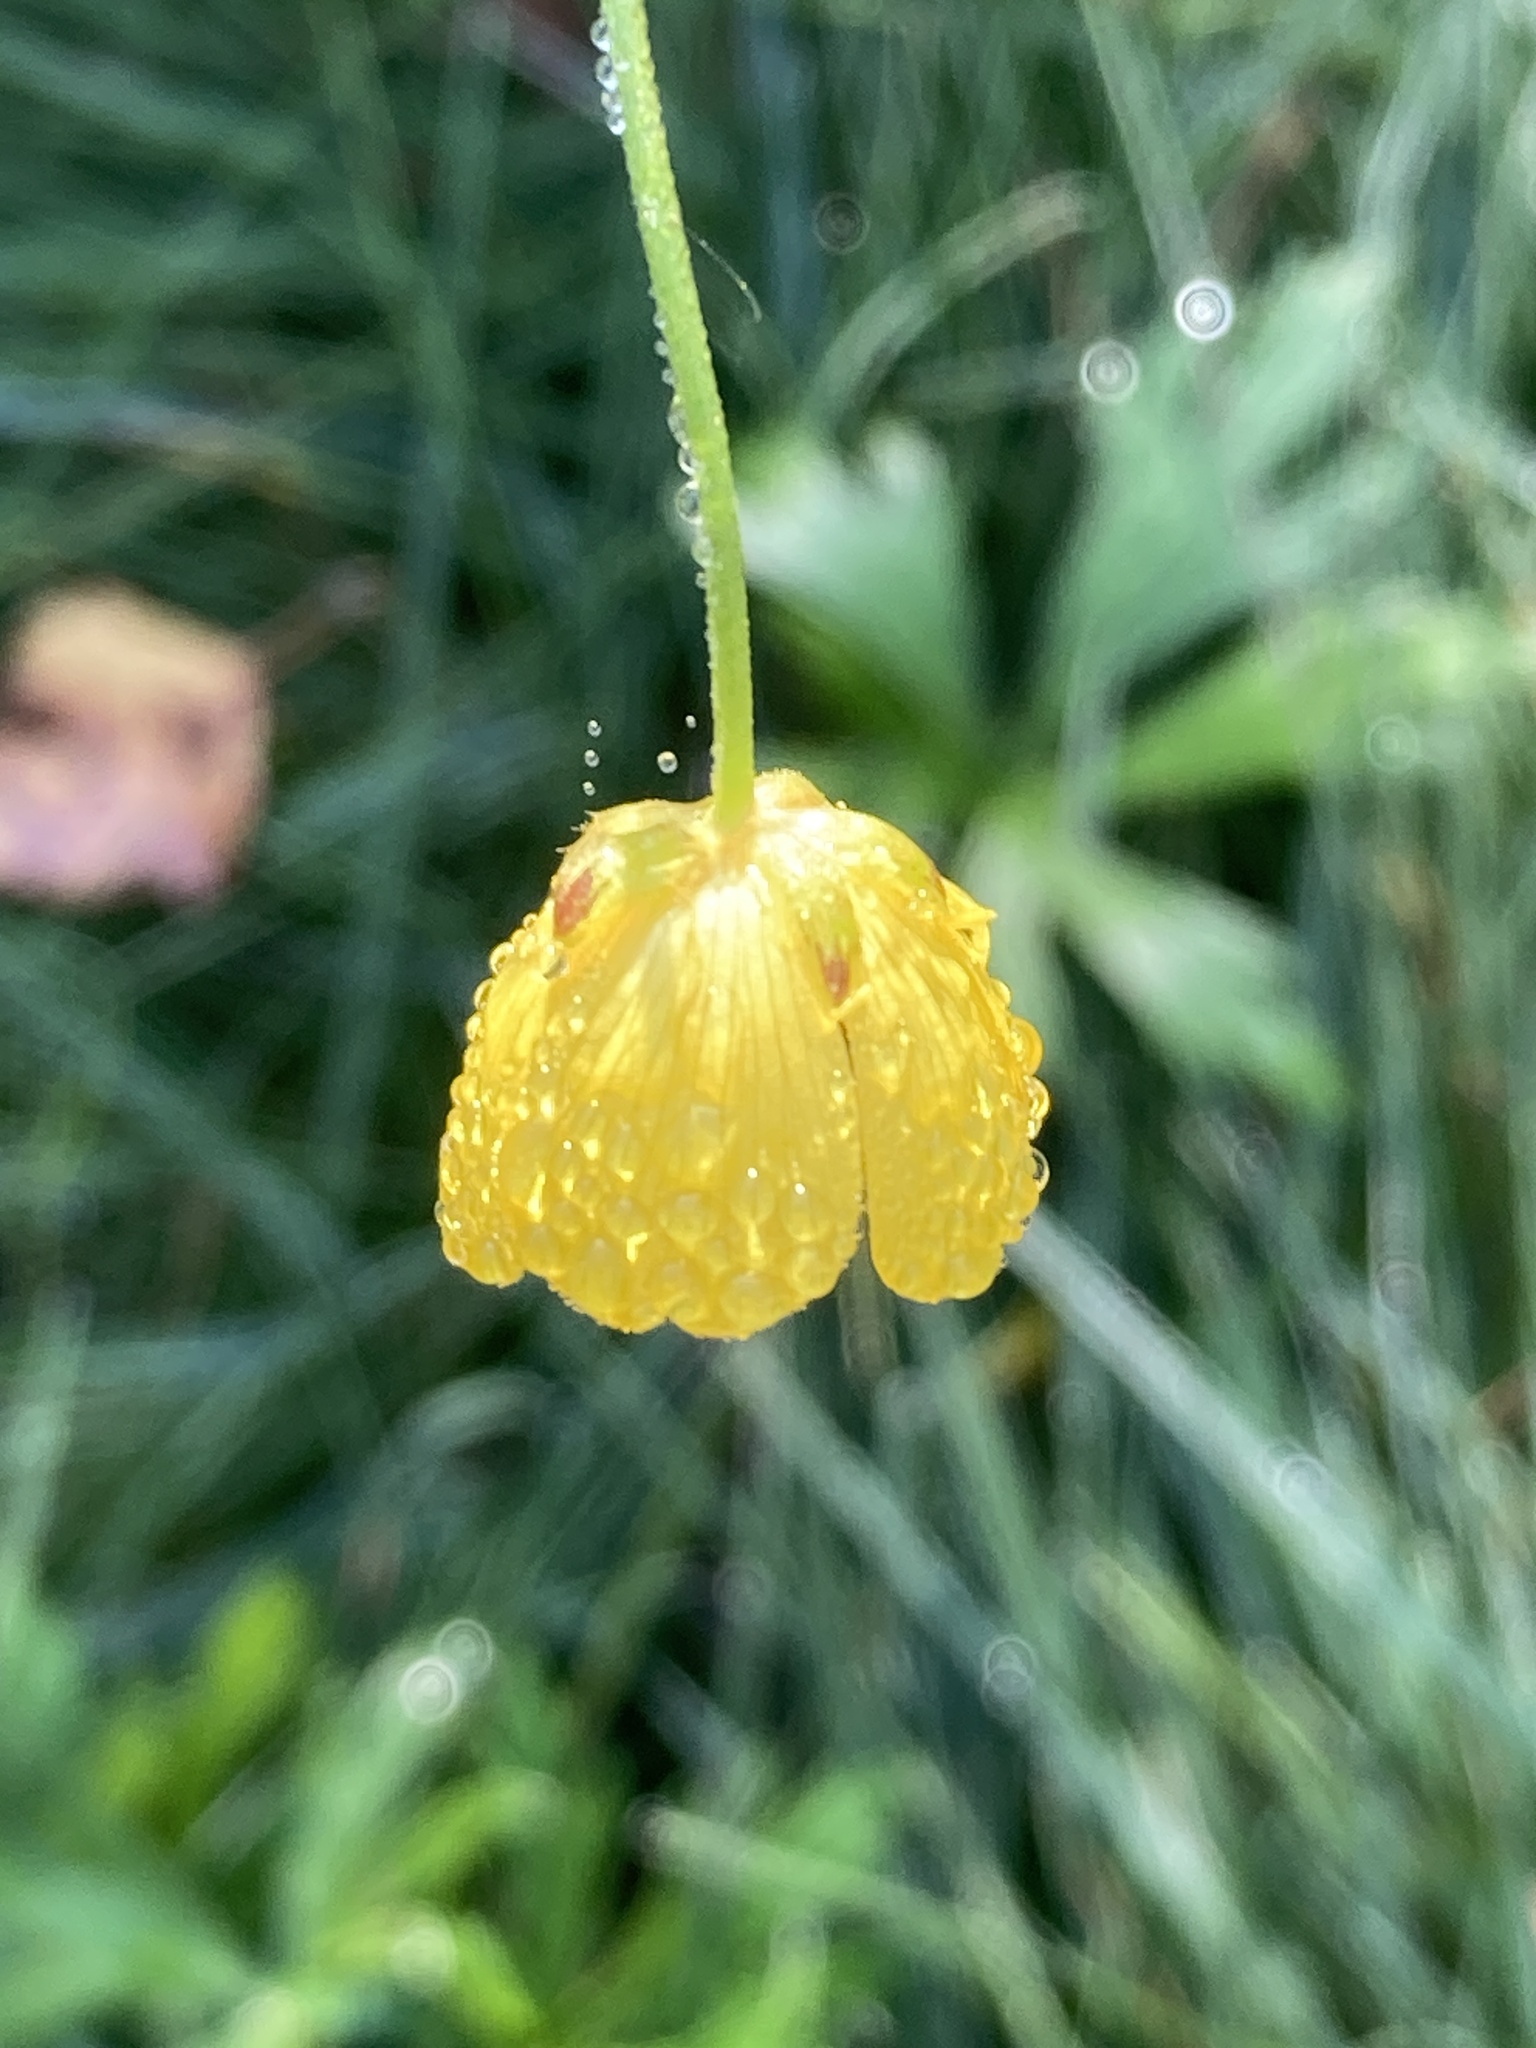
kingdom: Plantae
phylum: Tracheophyta
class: Magnoliopsida
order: Ranunculales
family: Ranunculaceae
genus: Ranunculus
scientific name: Ranunculus acris
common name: Meadow buttercup
